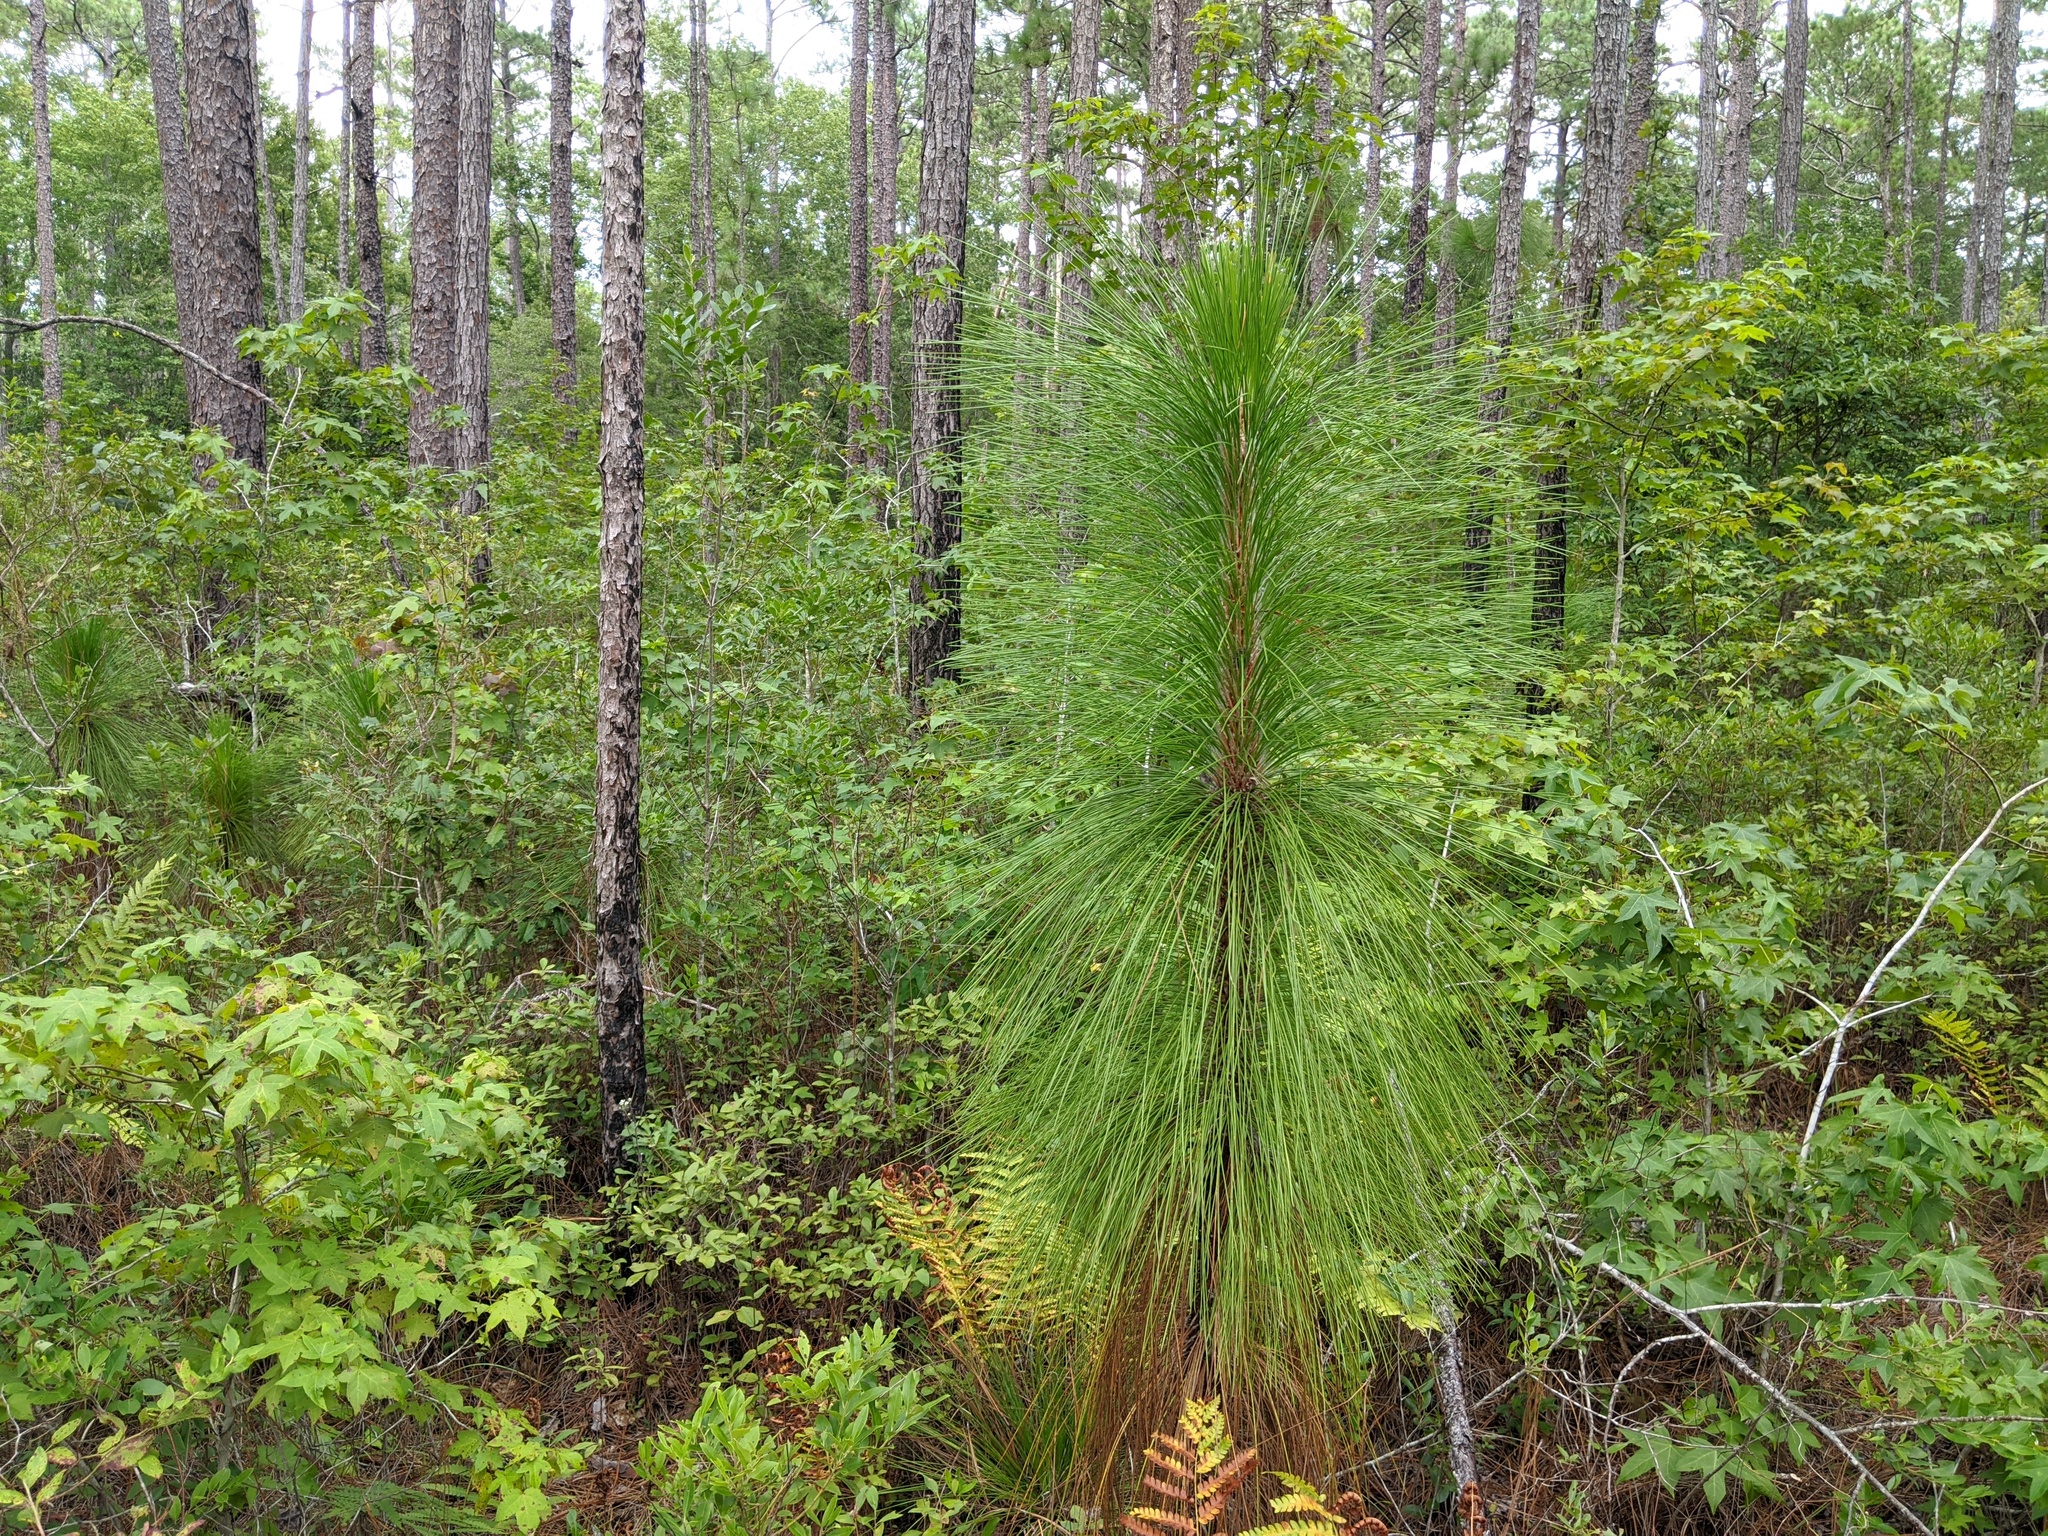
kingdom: Plantae
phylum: Tracheophyta
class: Pinopsida
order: Pinales
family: Pinaceae
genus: Pinus
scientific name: Pinus palustris
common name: Longleaf pine
